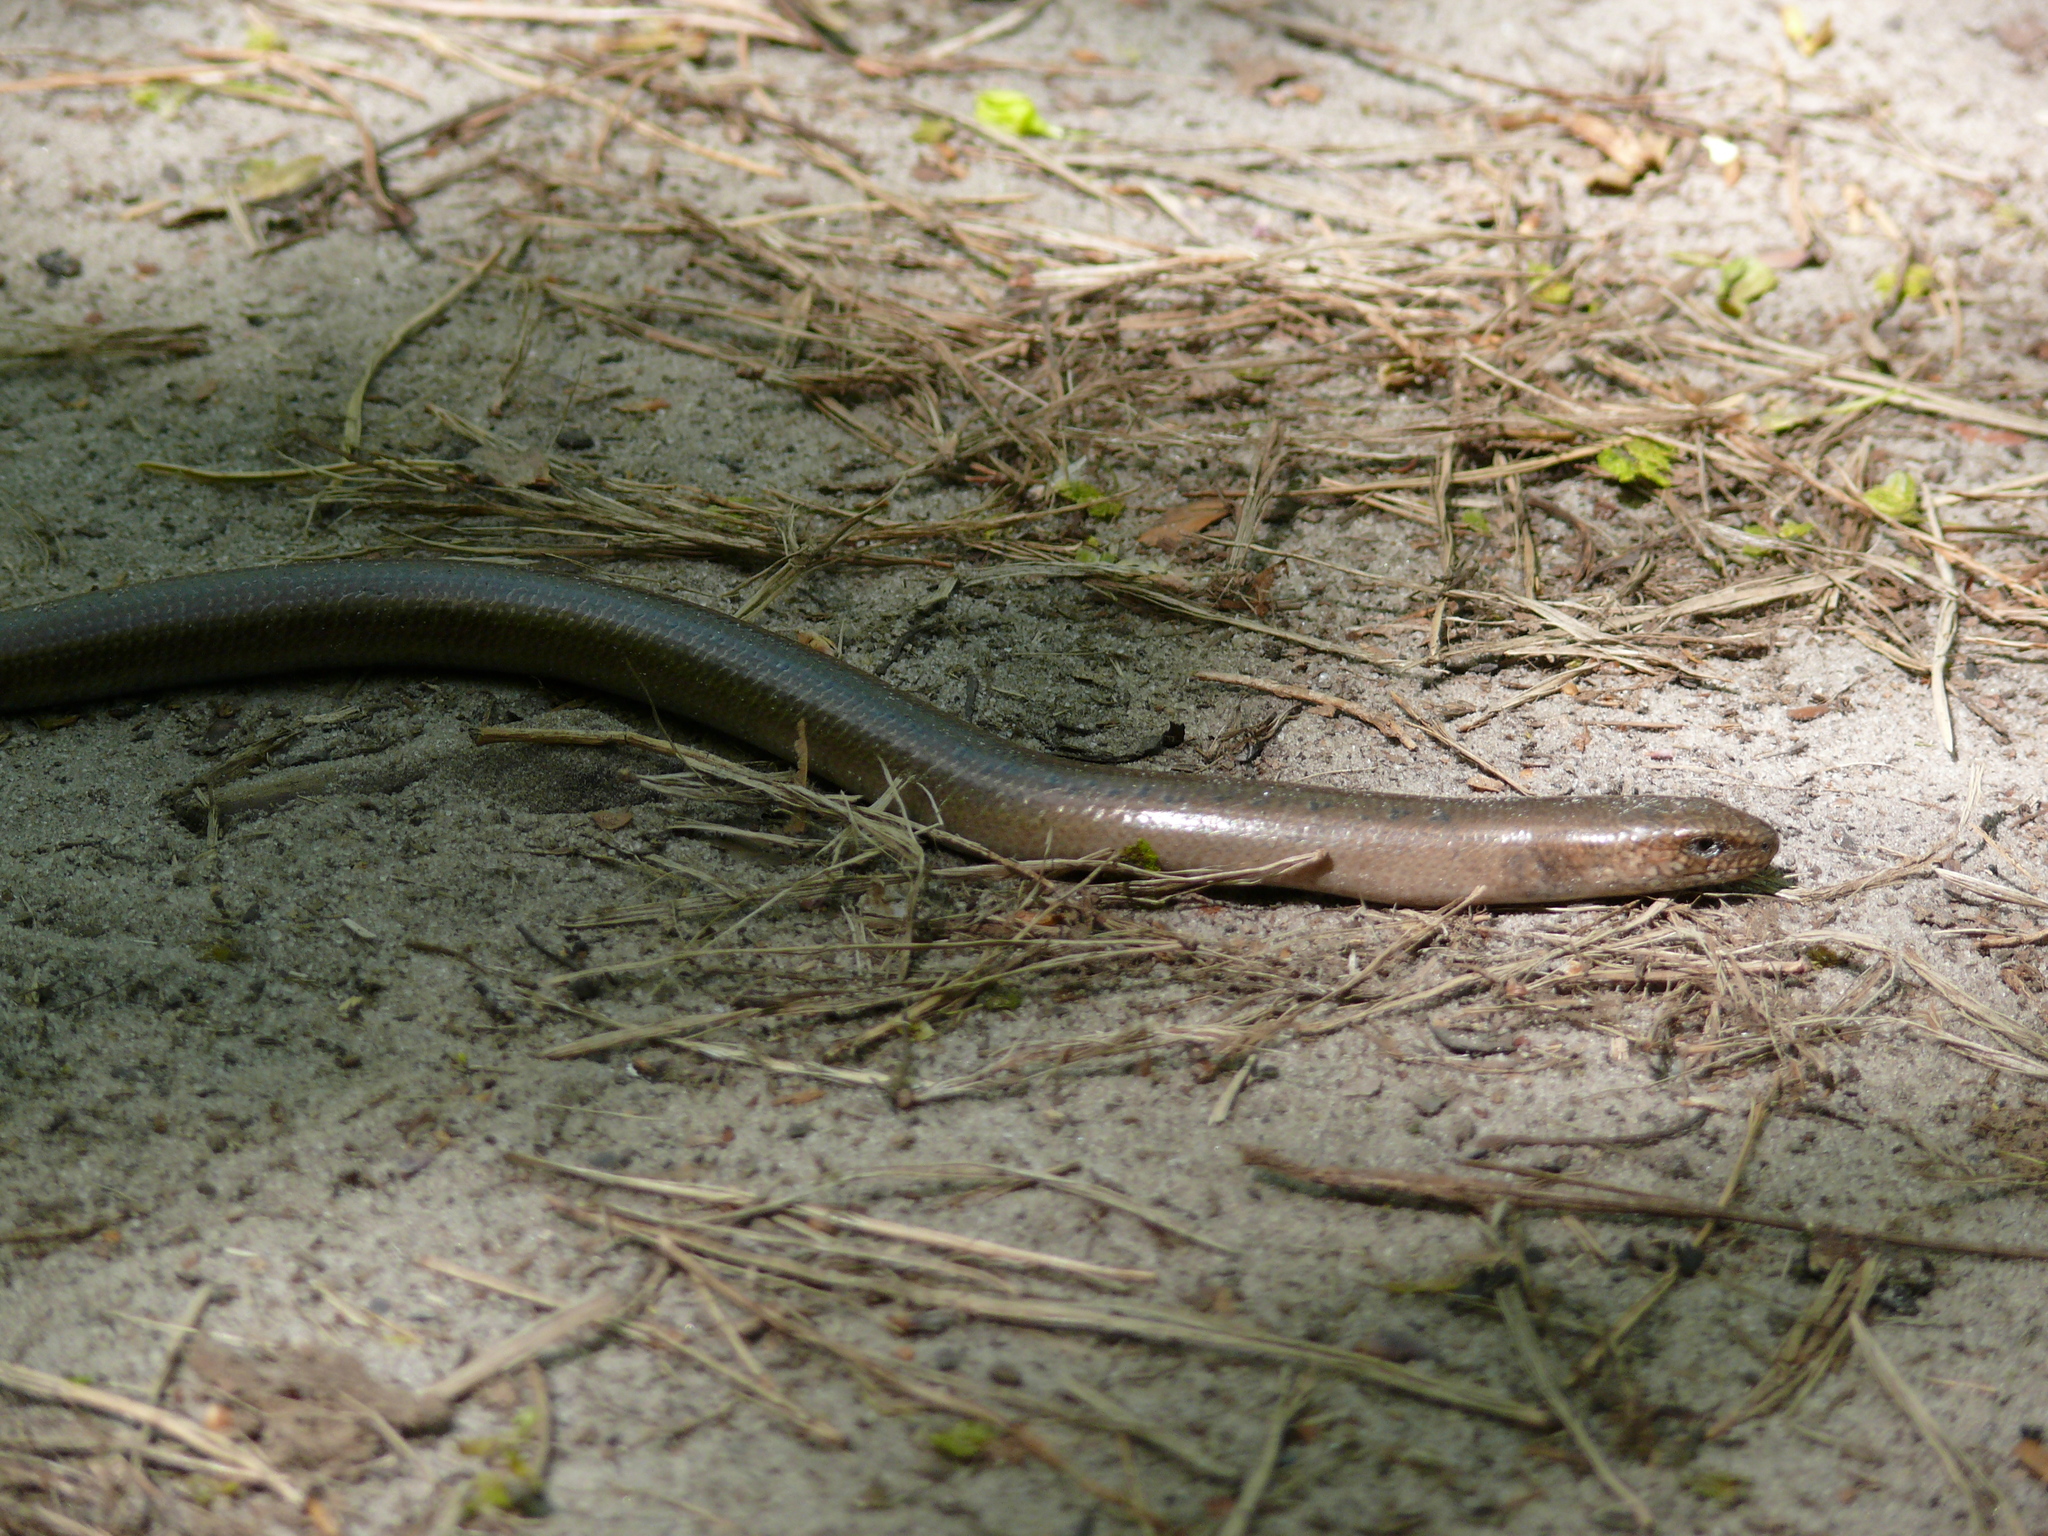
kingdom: Animalia
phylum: Chordata
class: Squamata
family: Anguidae
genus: Anguis
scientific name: Anguis colchica
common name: Slow worm
